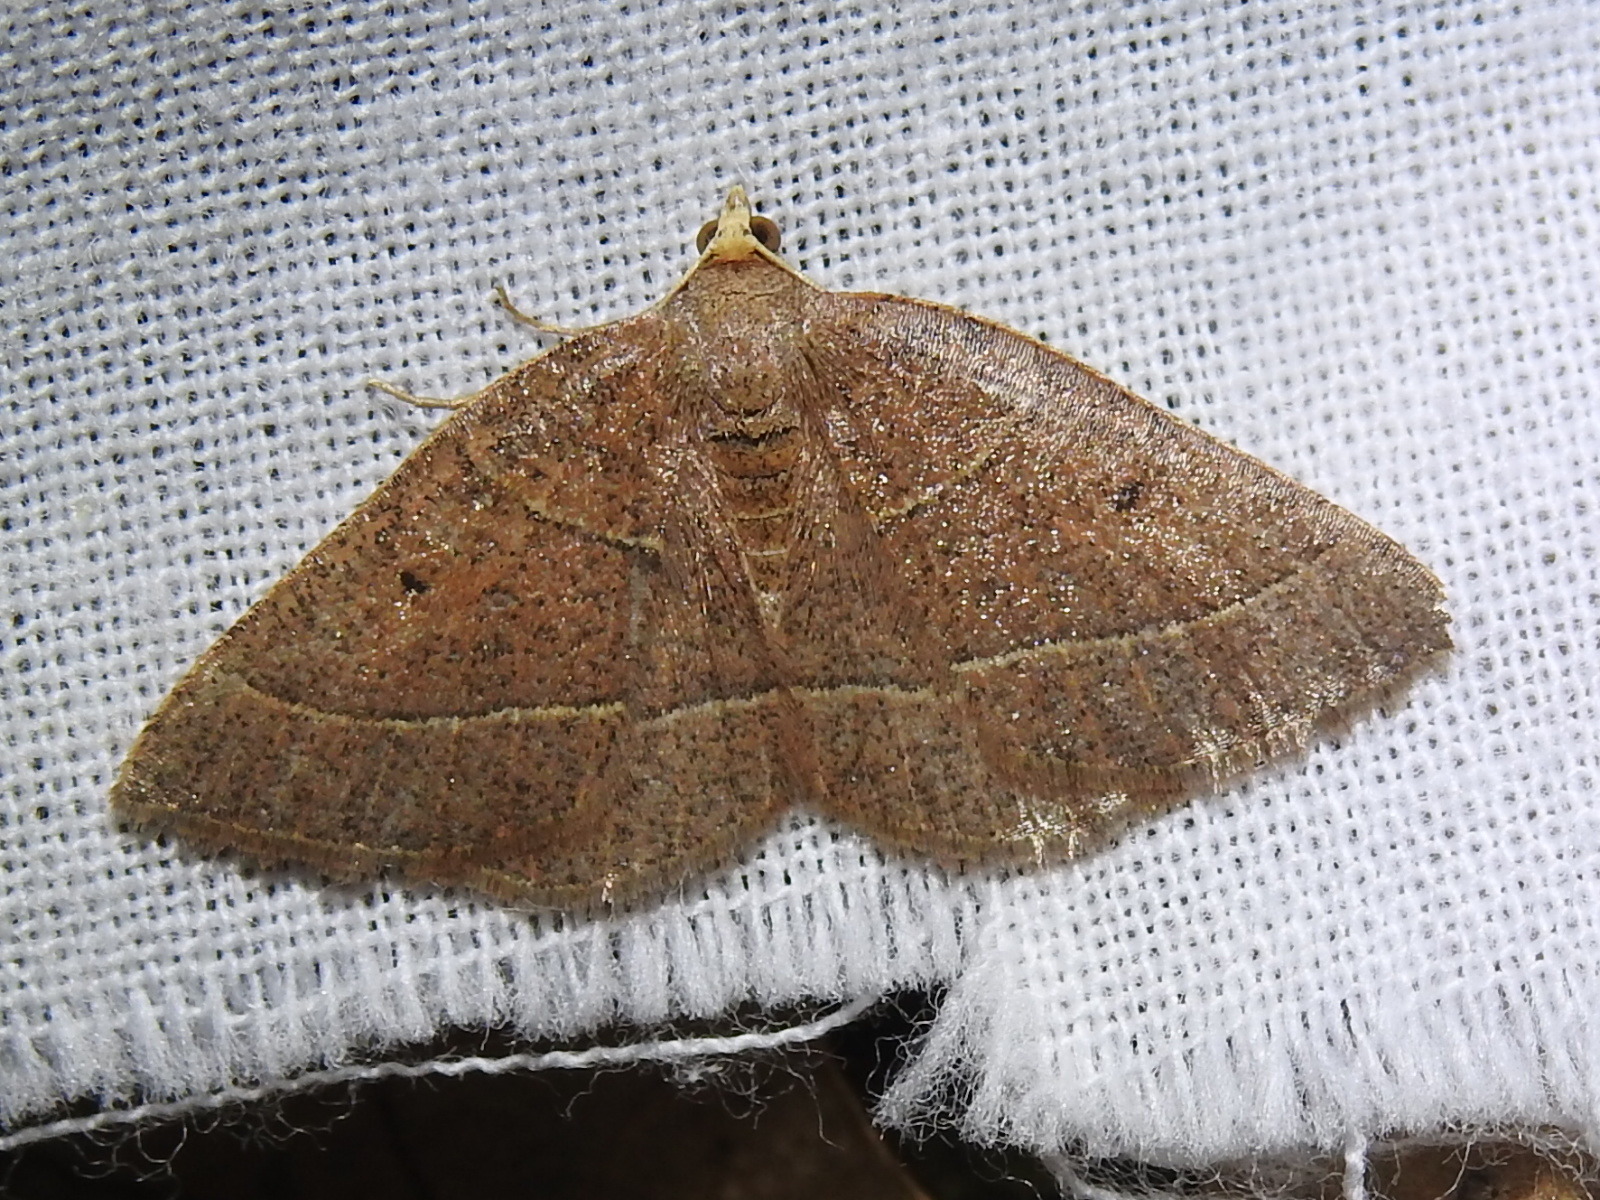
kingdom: Animalia
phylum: Arthropoda
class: Insecta
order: Lepidoptera
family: Geometridae
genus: Episemasia
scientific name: Episemasia cervinaria
